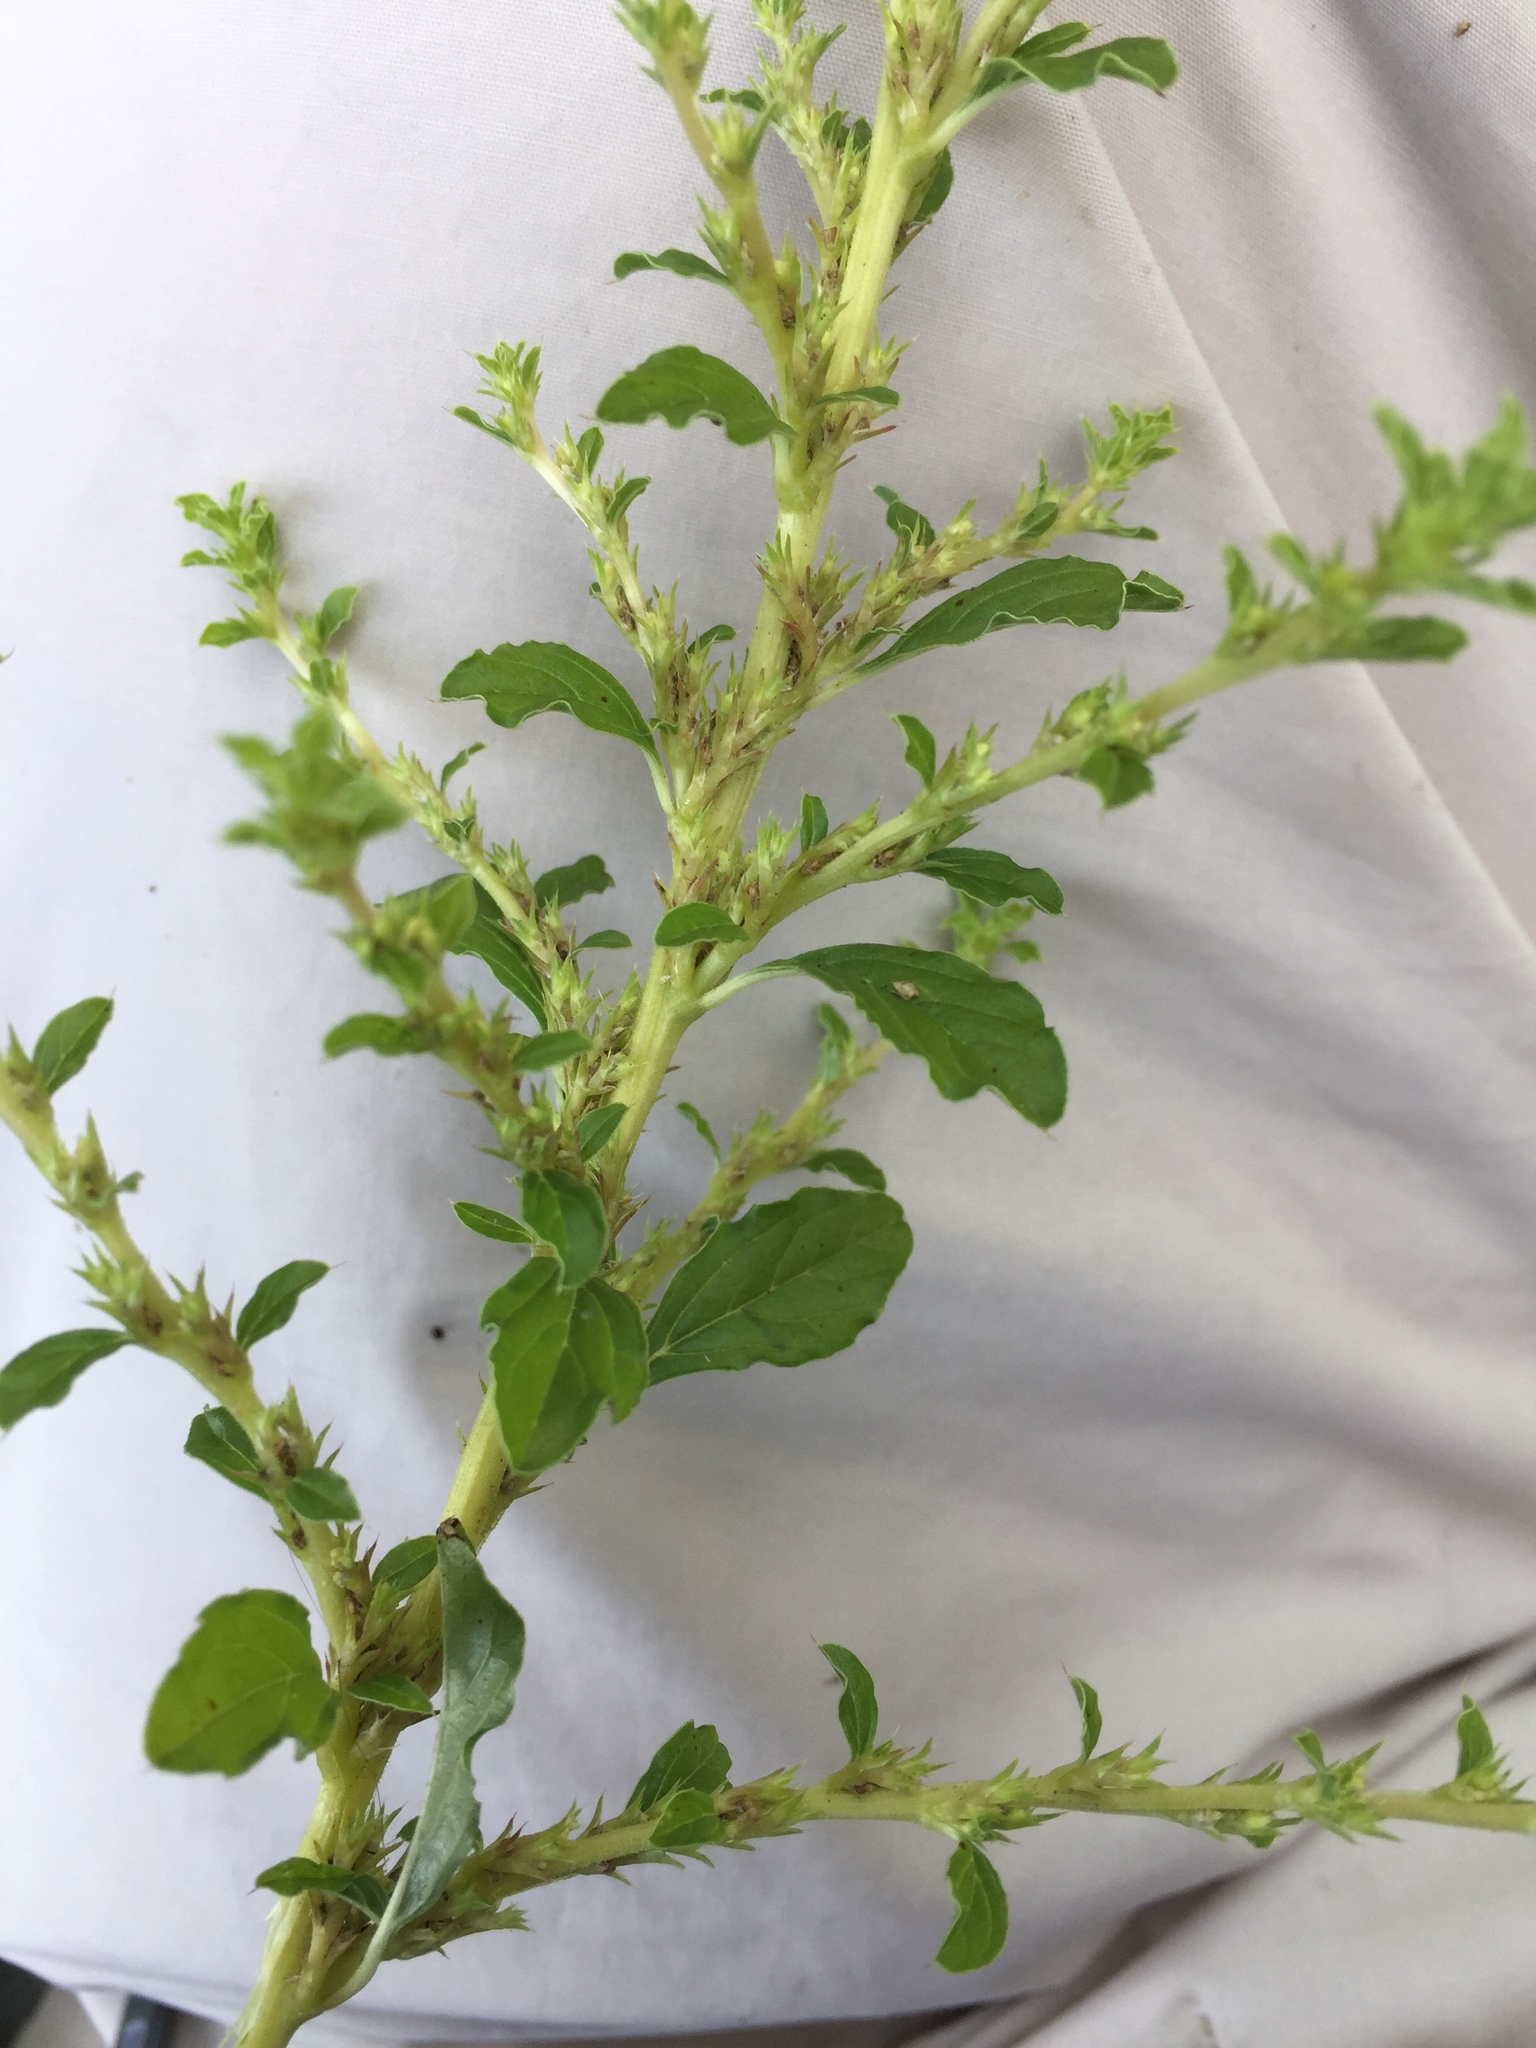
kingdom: Plantae
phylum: Tracheophyta
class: Magnoliopsida
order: Caryophyllales
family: Amaranthaceae
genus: Amaranthus
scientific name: Amaranthus albus
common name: White pigweed
